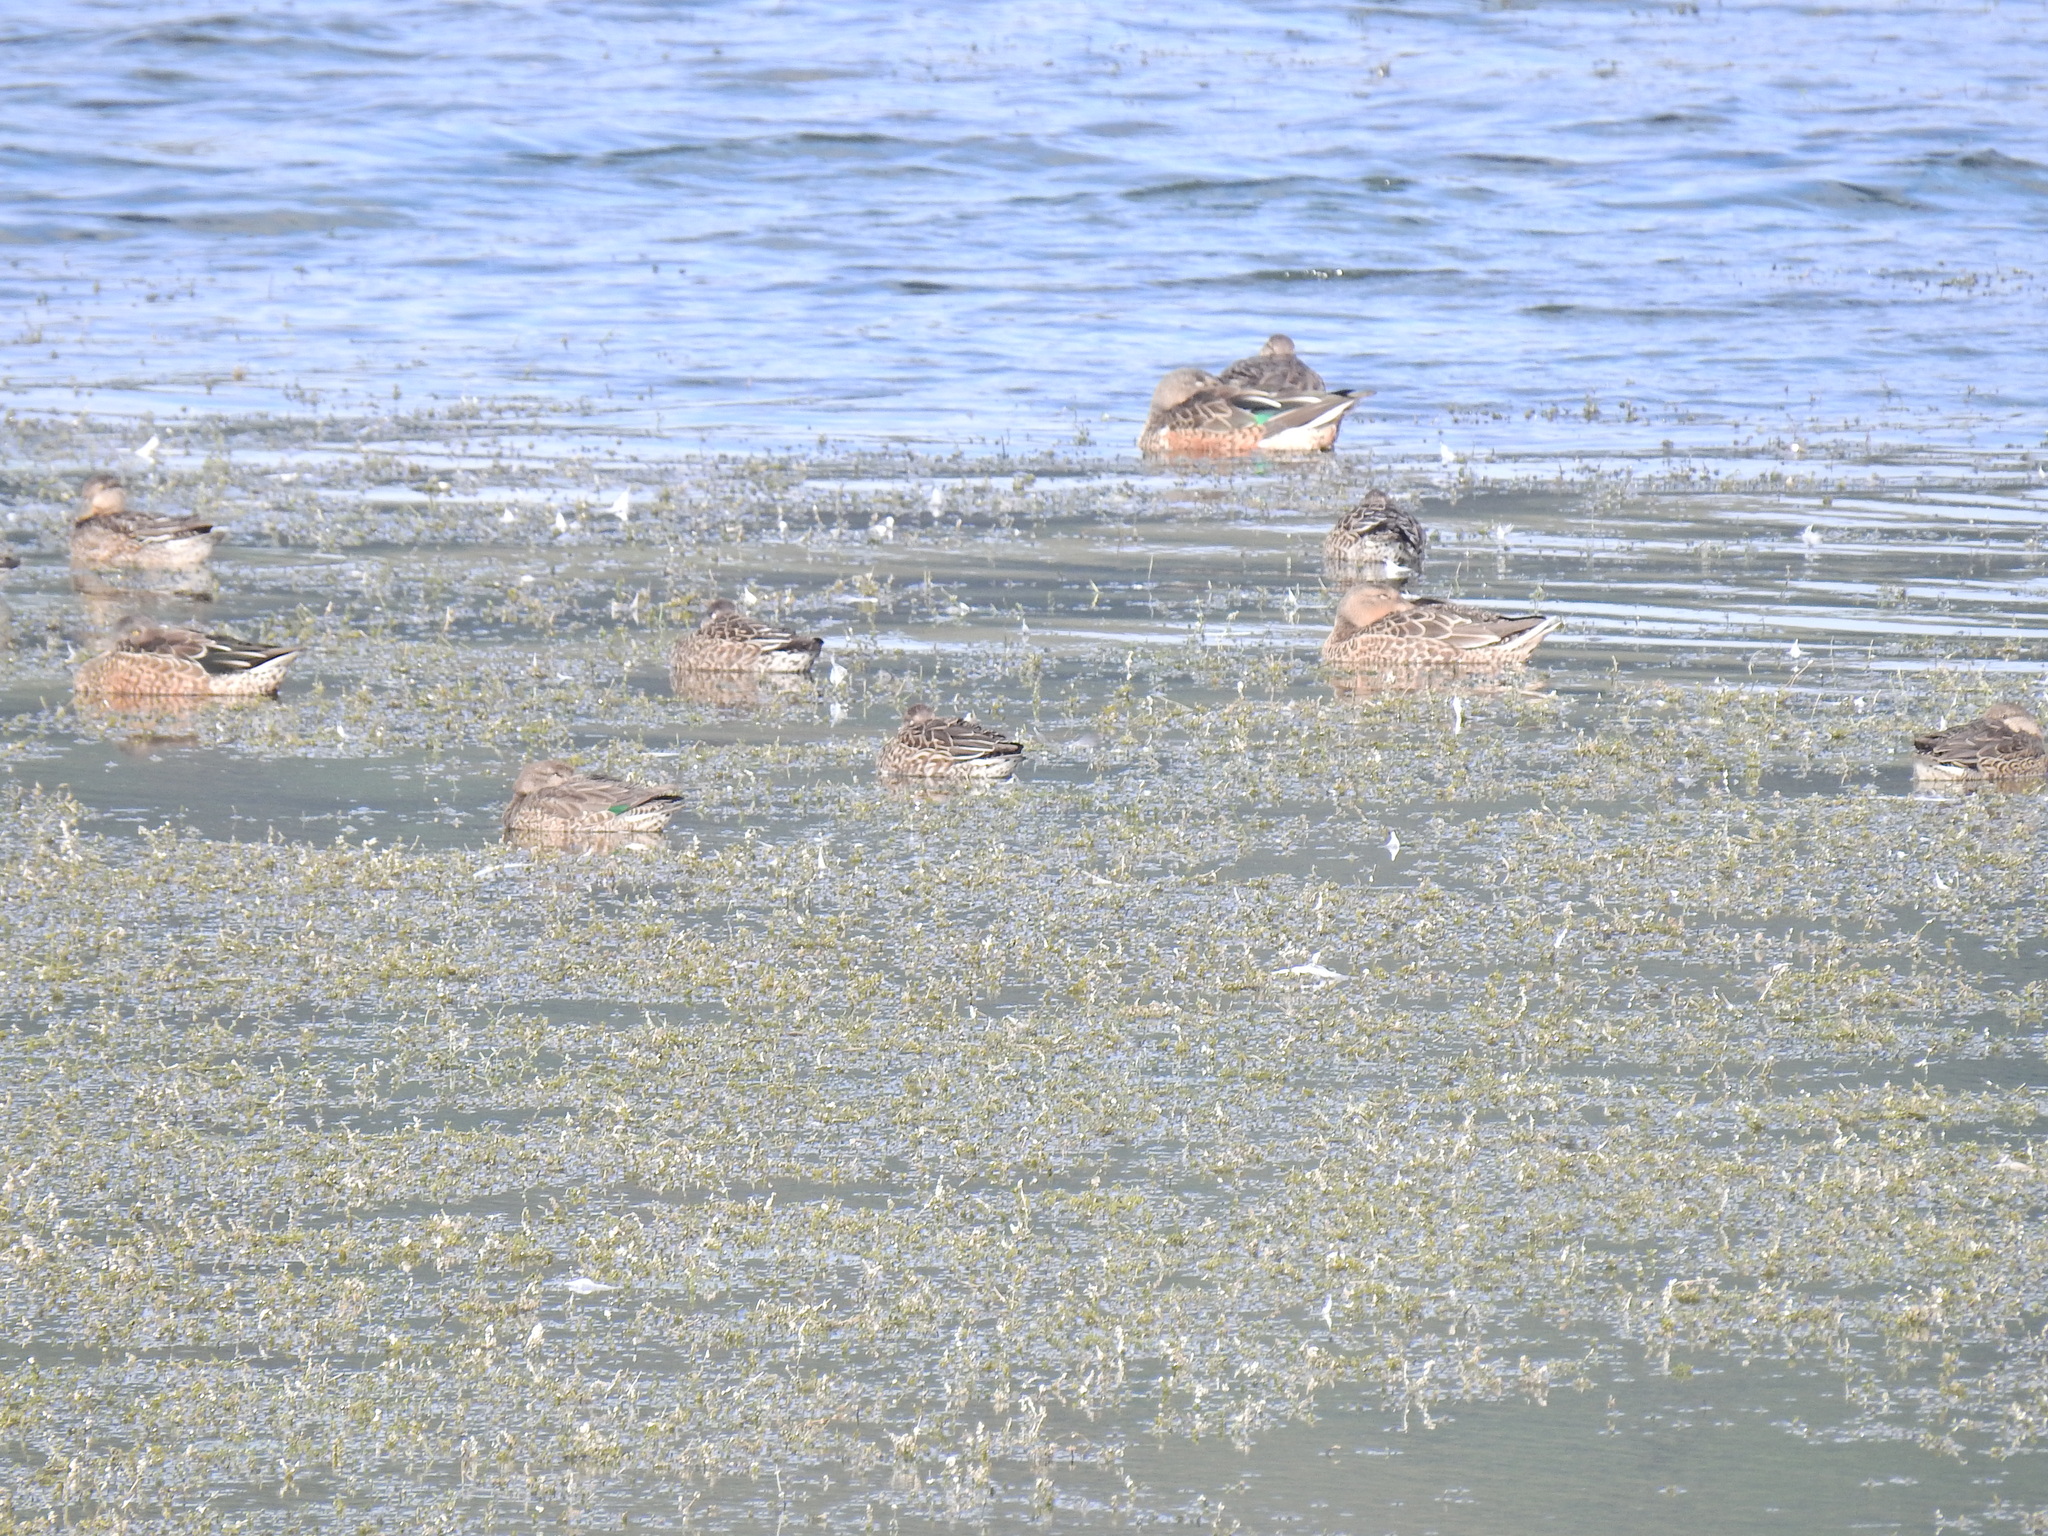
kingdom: Animalia
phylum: Chordata
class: Aves
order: Anseriformes
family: Anatidae
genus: Anas
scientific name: Anas crecca
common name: Eurasian teal
